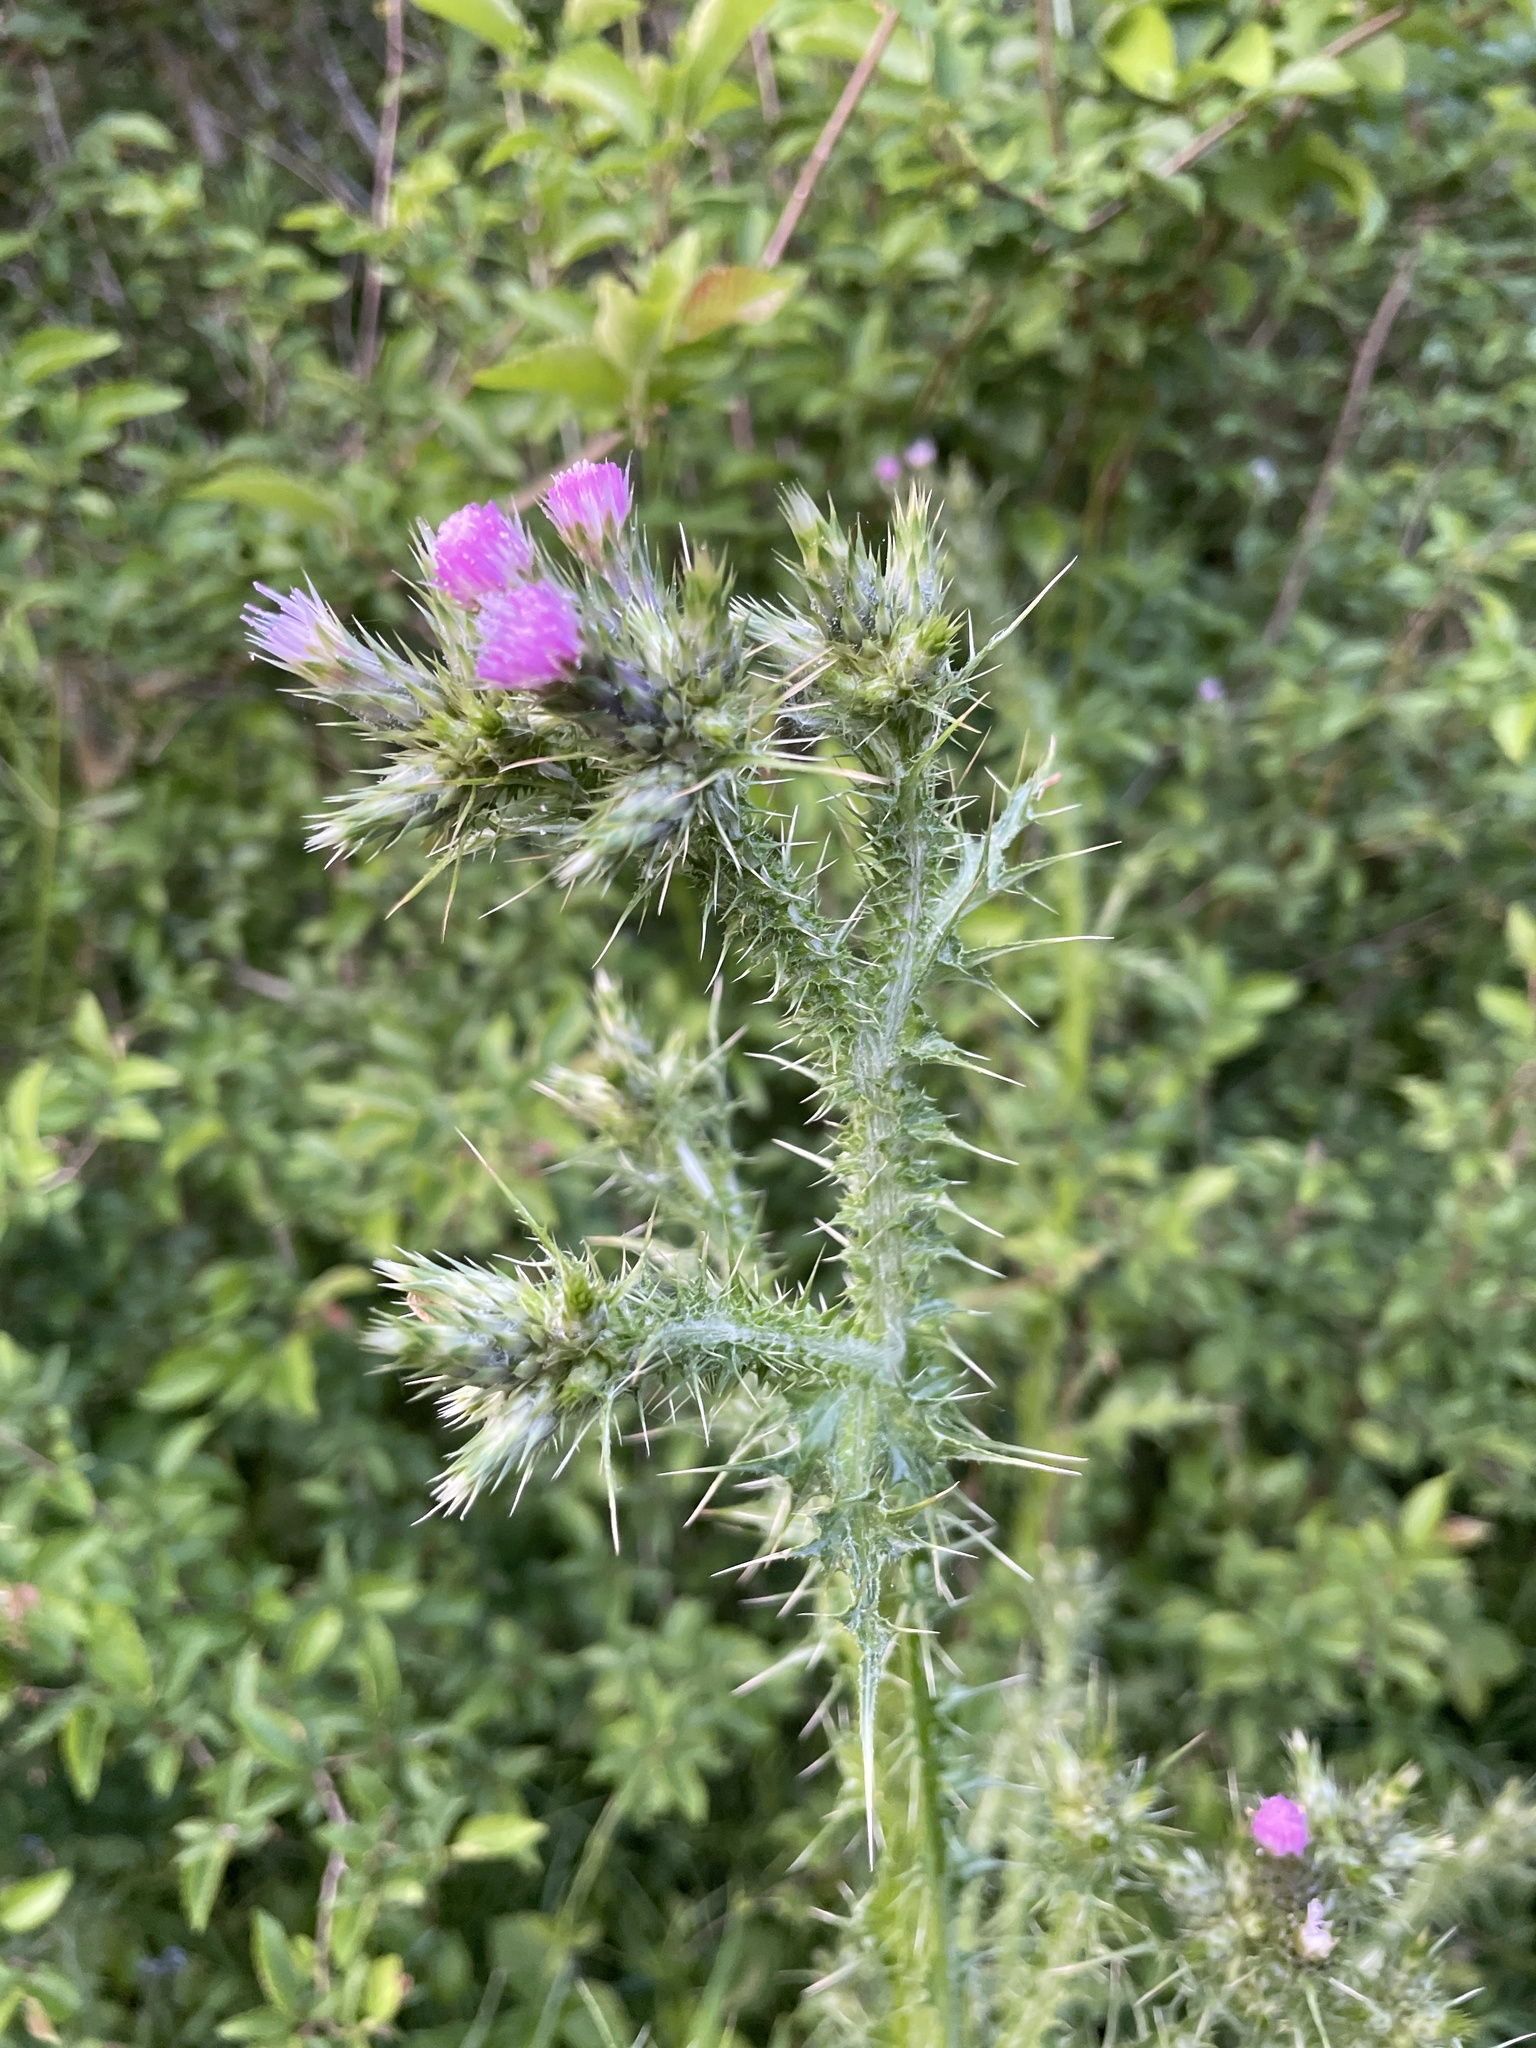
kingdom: Plantae
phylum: Tracheophyta
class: Magnoliopsida
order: Asterales
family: Asteraceae
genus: Carduus
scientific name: Carduus tenuiflorus
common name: Slender thistle
